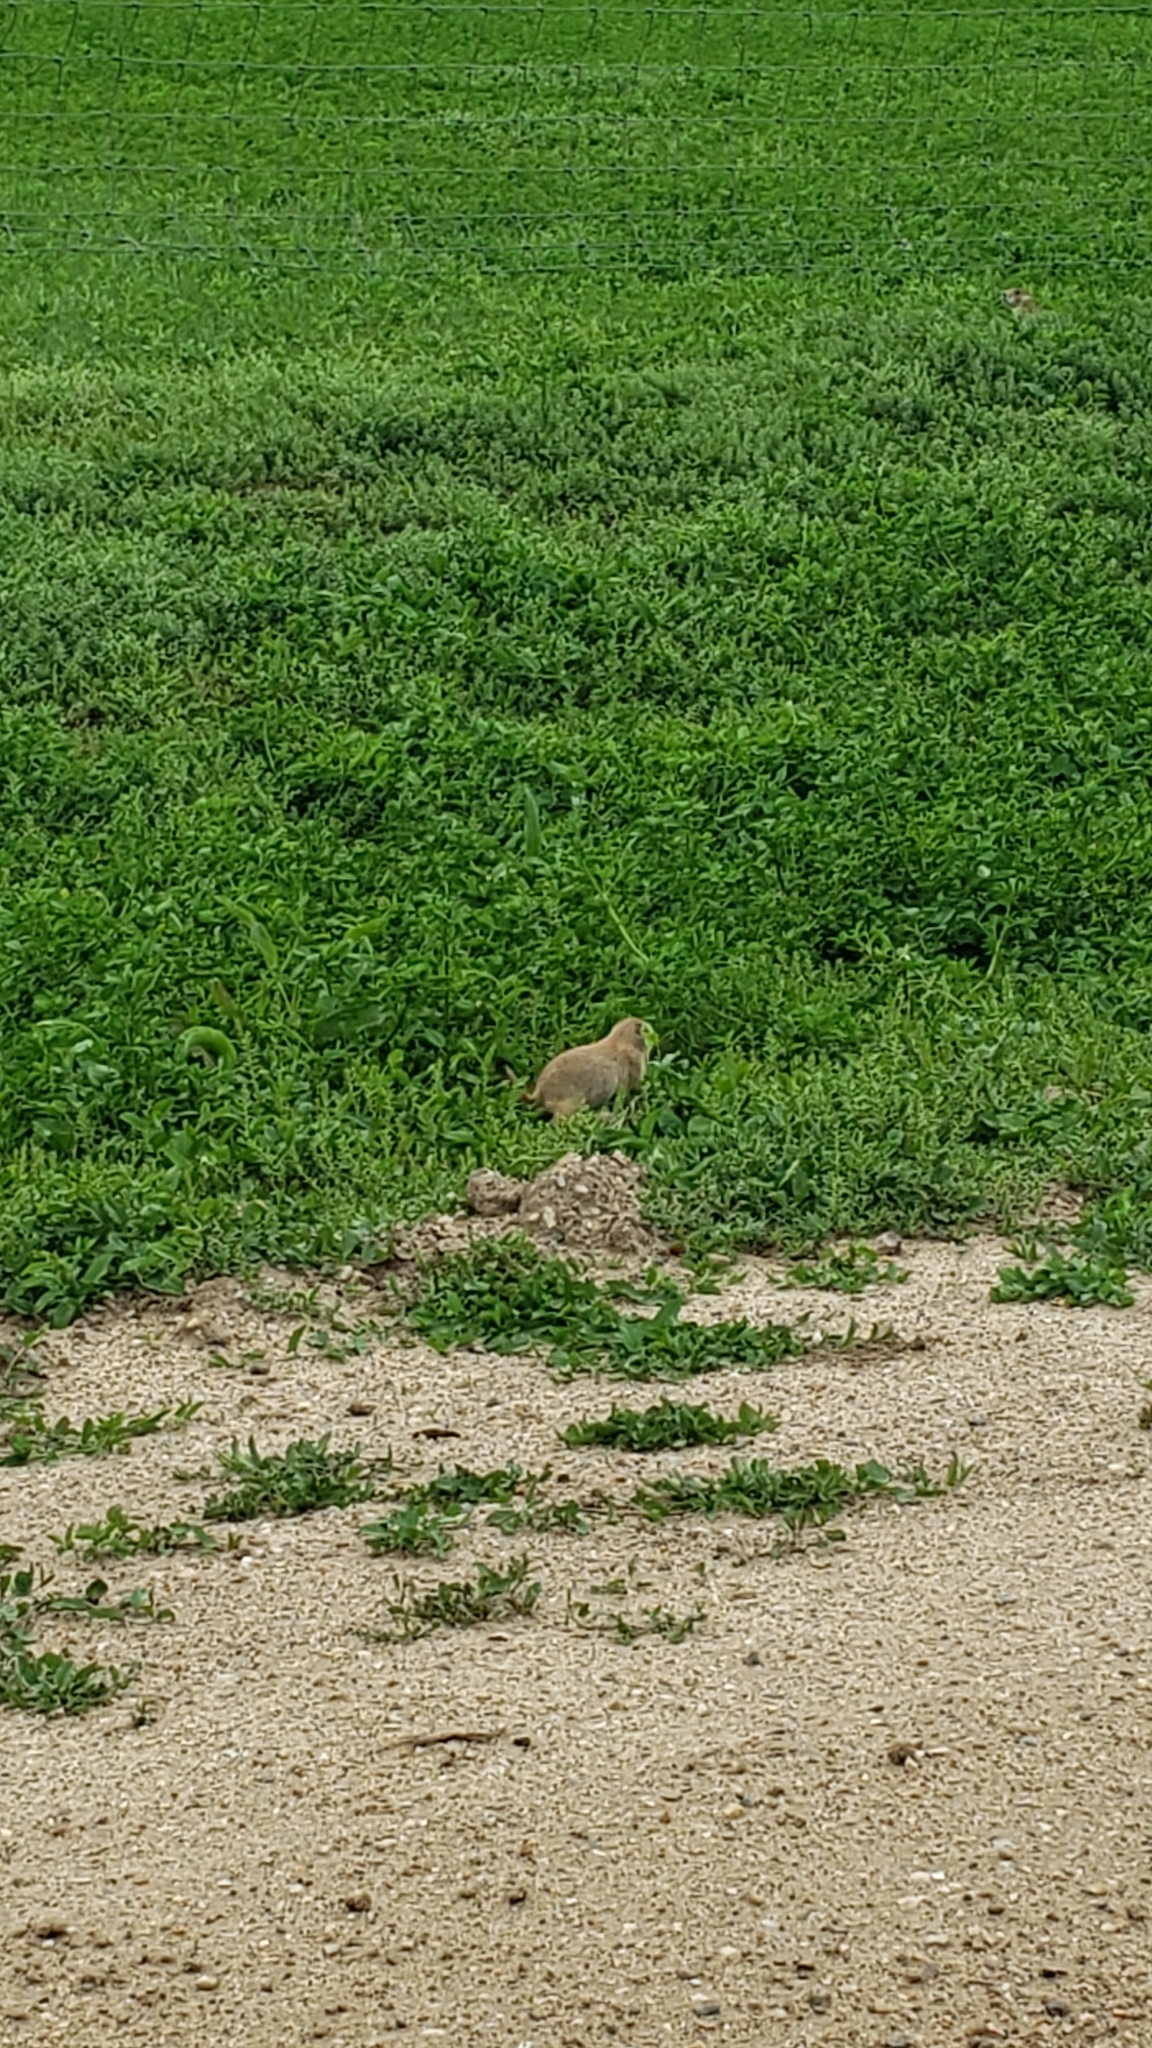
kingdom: Animalia
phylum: Chordata
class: Mammalia
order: Rodentia
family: Sciuridae
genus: Cynomys
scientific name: Cynomys ludovicianus
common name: Black-tailed prairie dog
